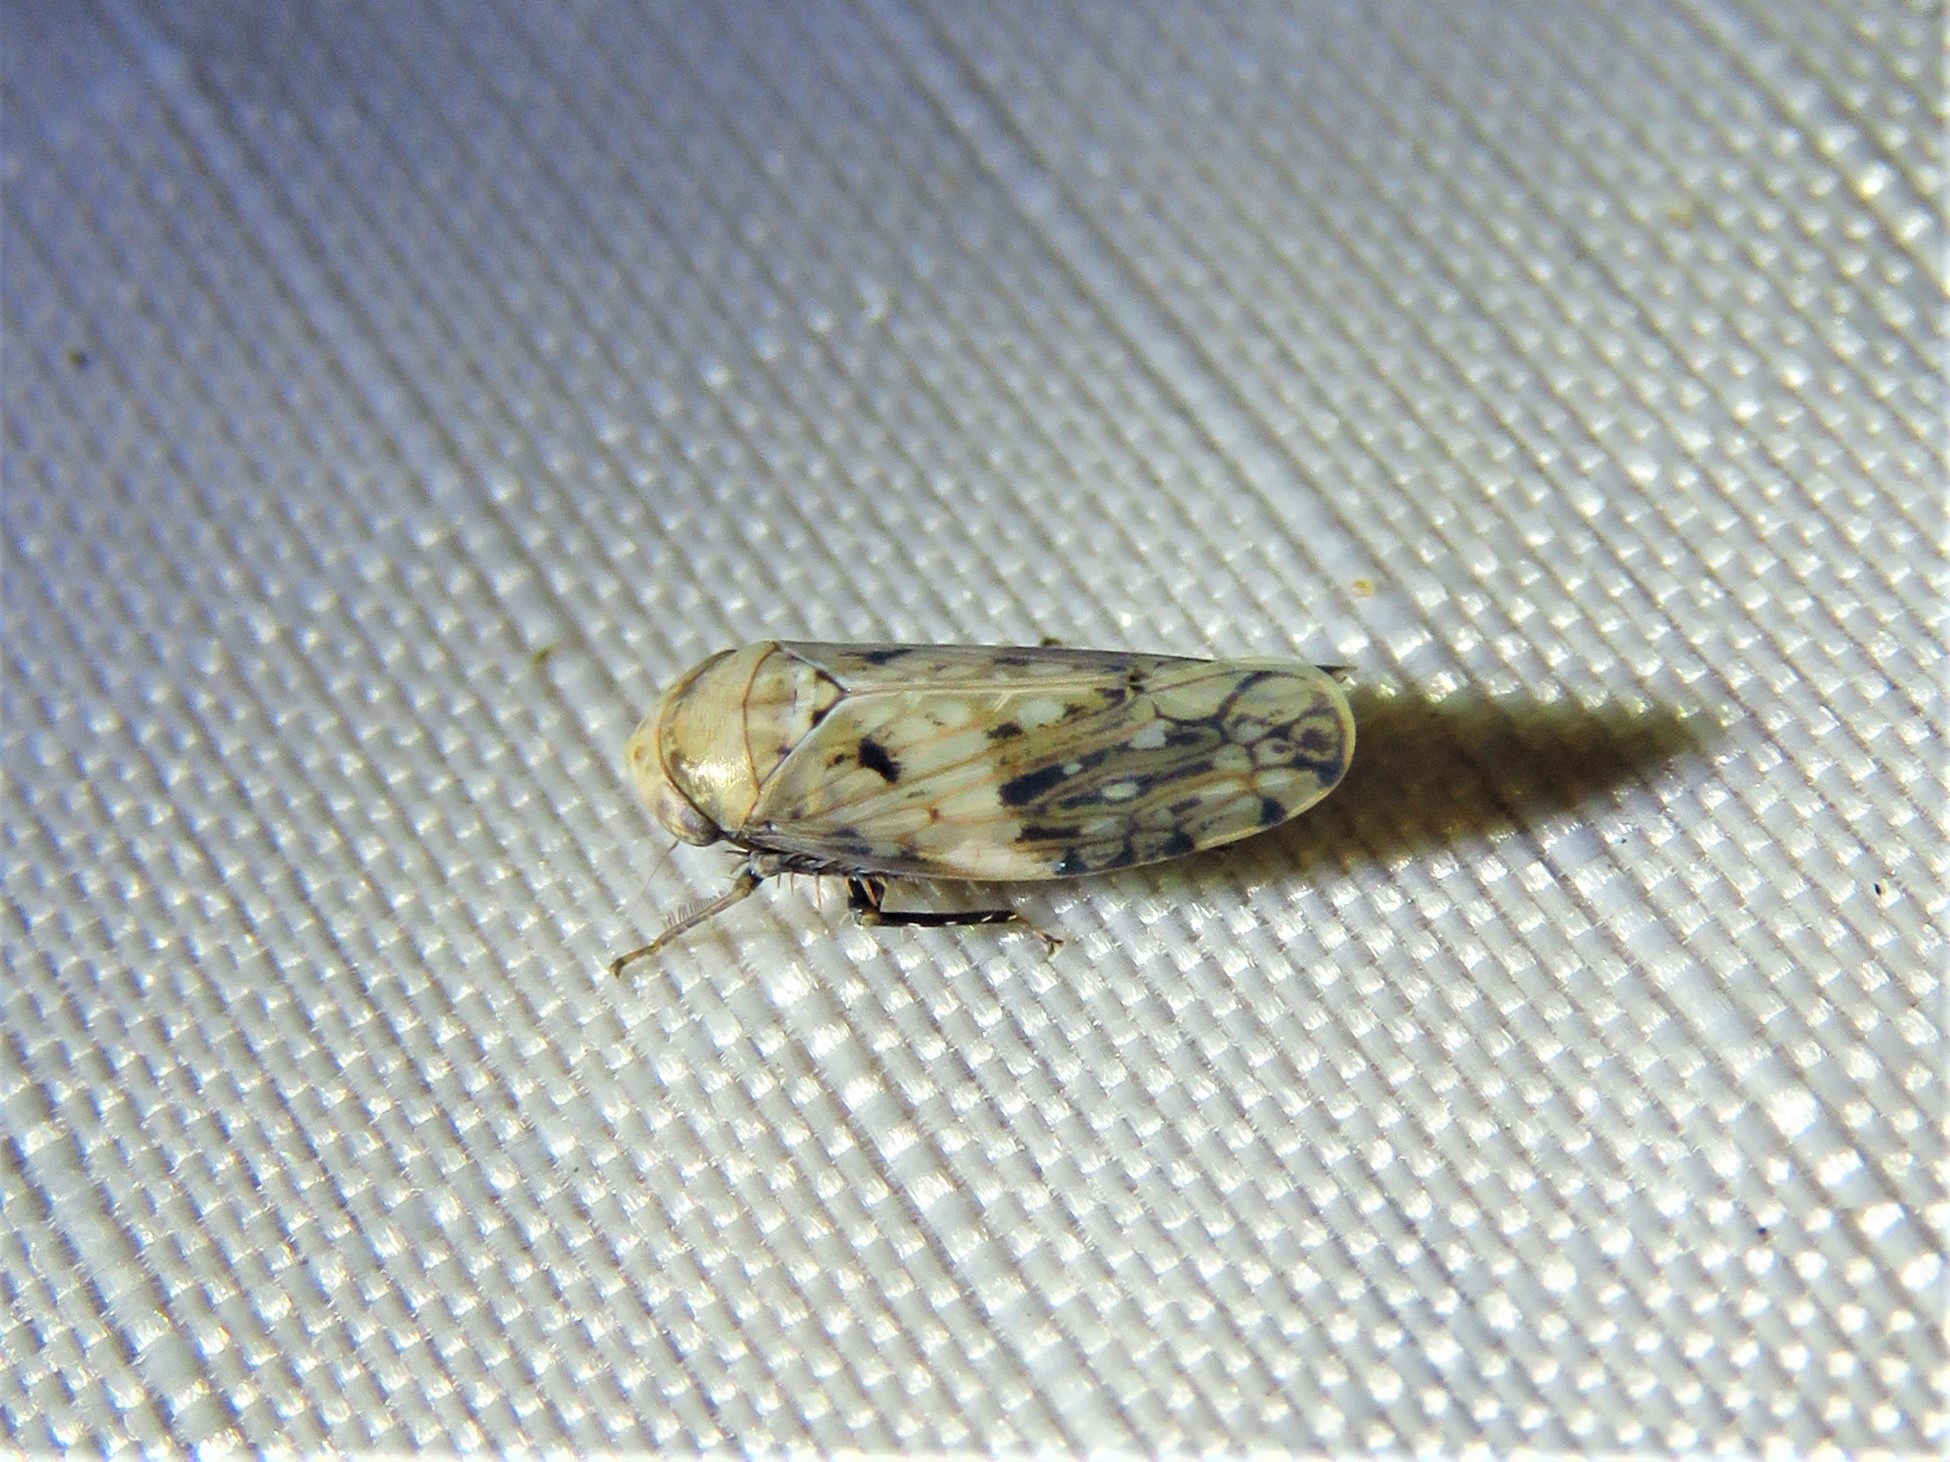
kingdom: Animalia
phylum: Arthropoda
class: Insecta
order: Hemiptera
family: Cicadellidae
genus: Menosoma
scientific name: Menosoma cinctum
